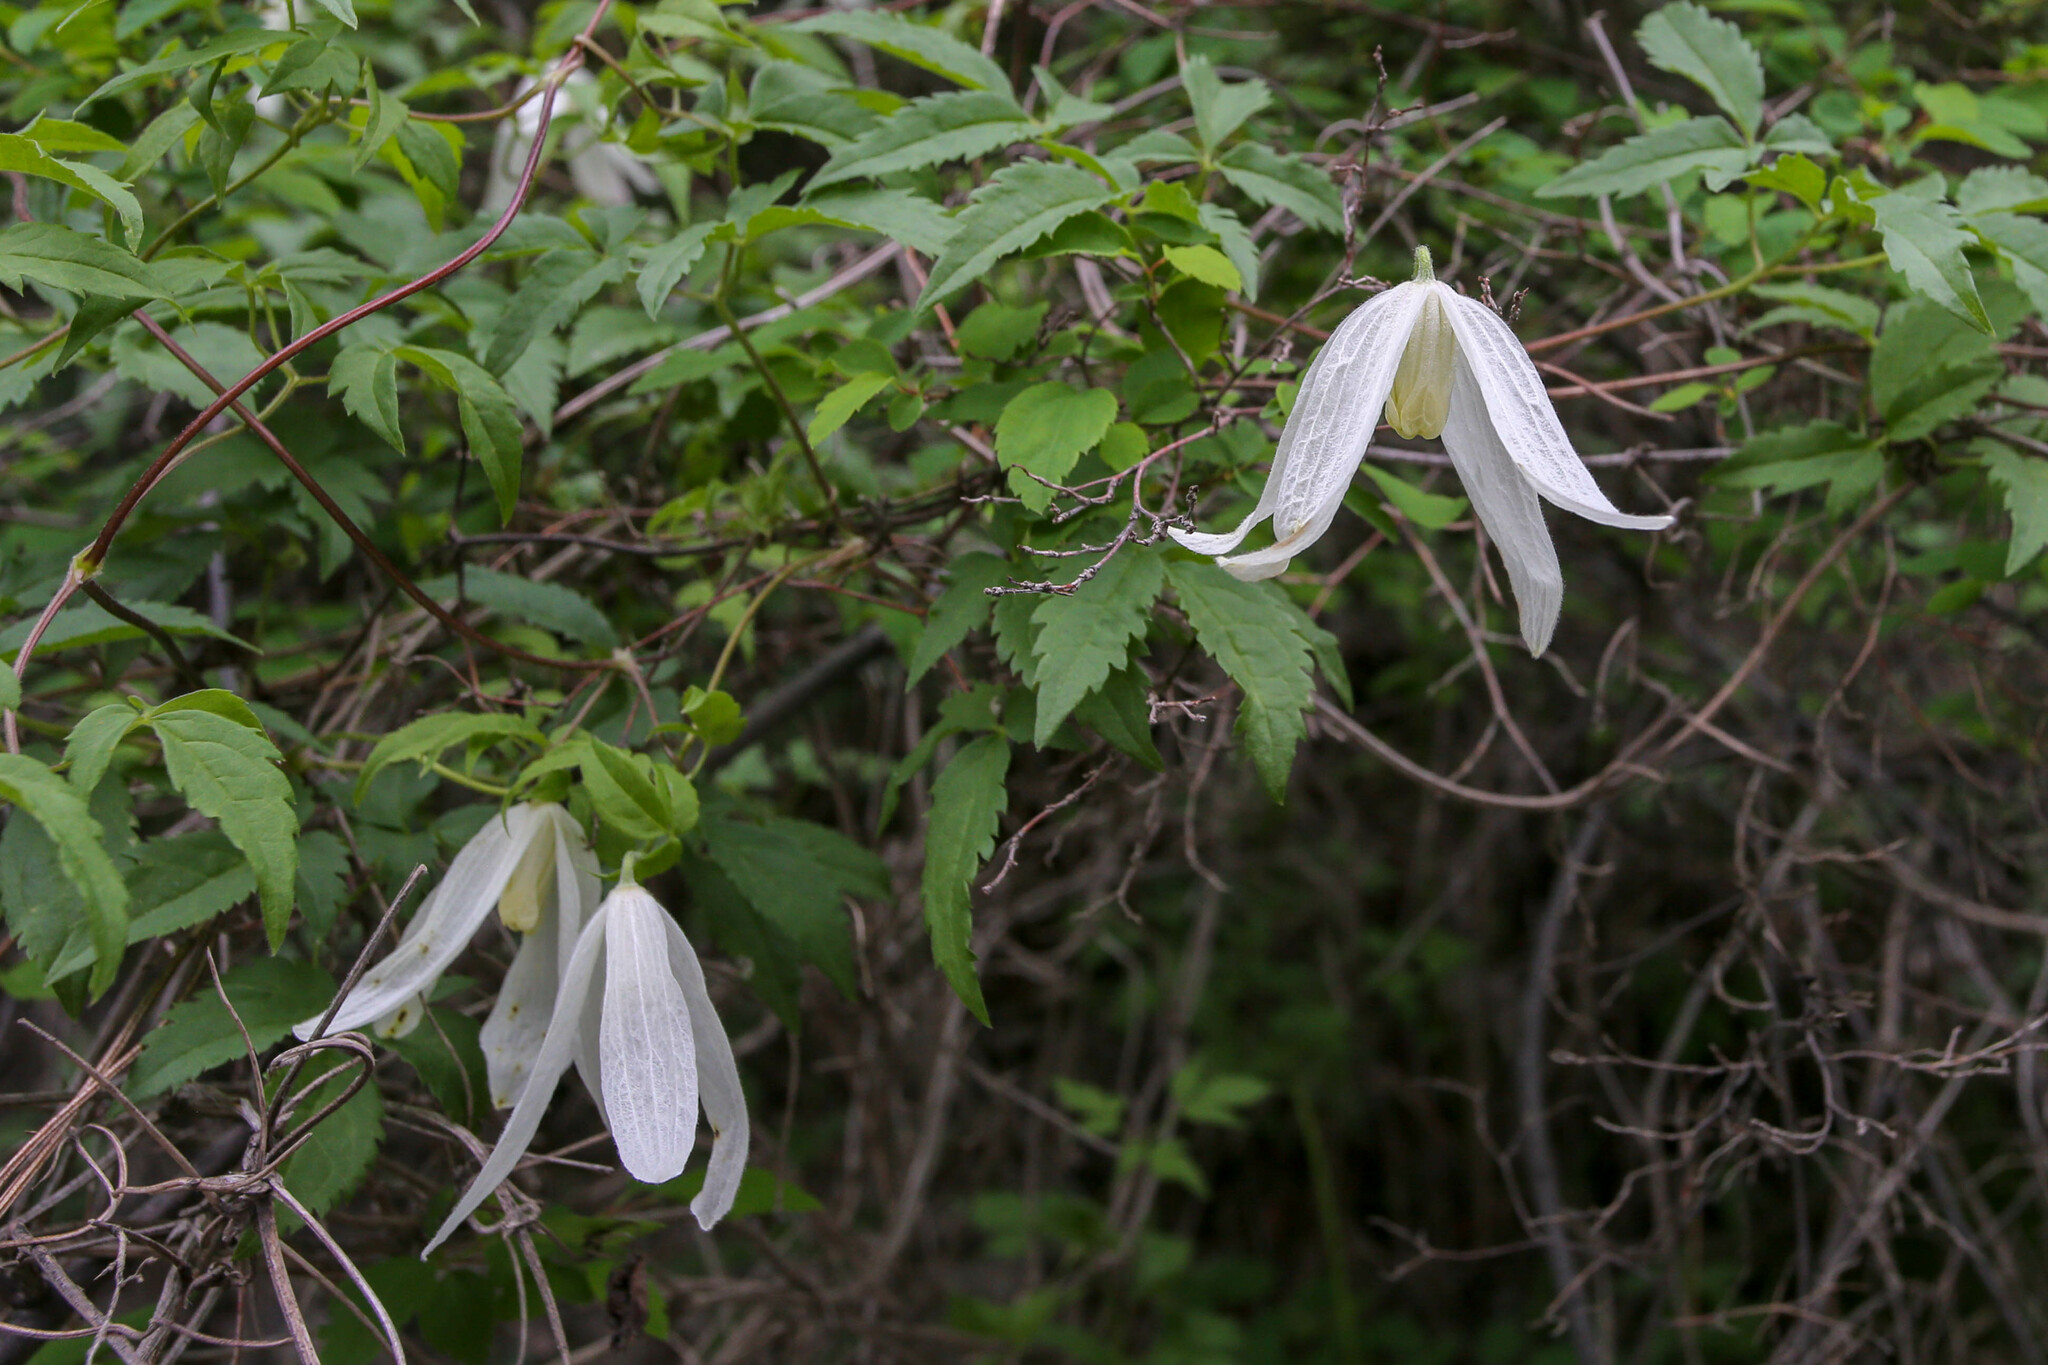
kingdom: Plantae
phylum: Tracheophyta
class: Magnoliopsida
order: Ranunculales
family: Ranunculaceae
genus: Clematis
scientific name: Clematis sibirica
